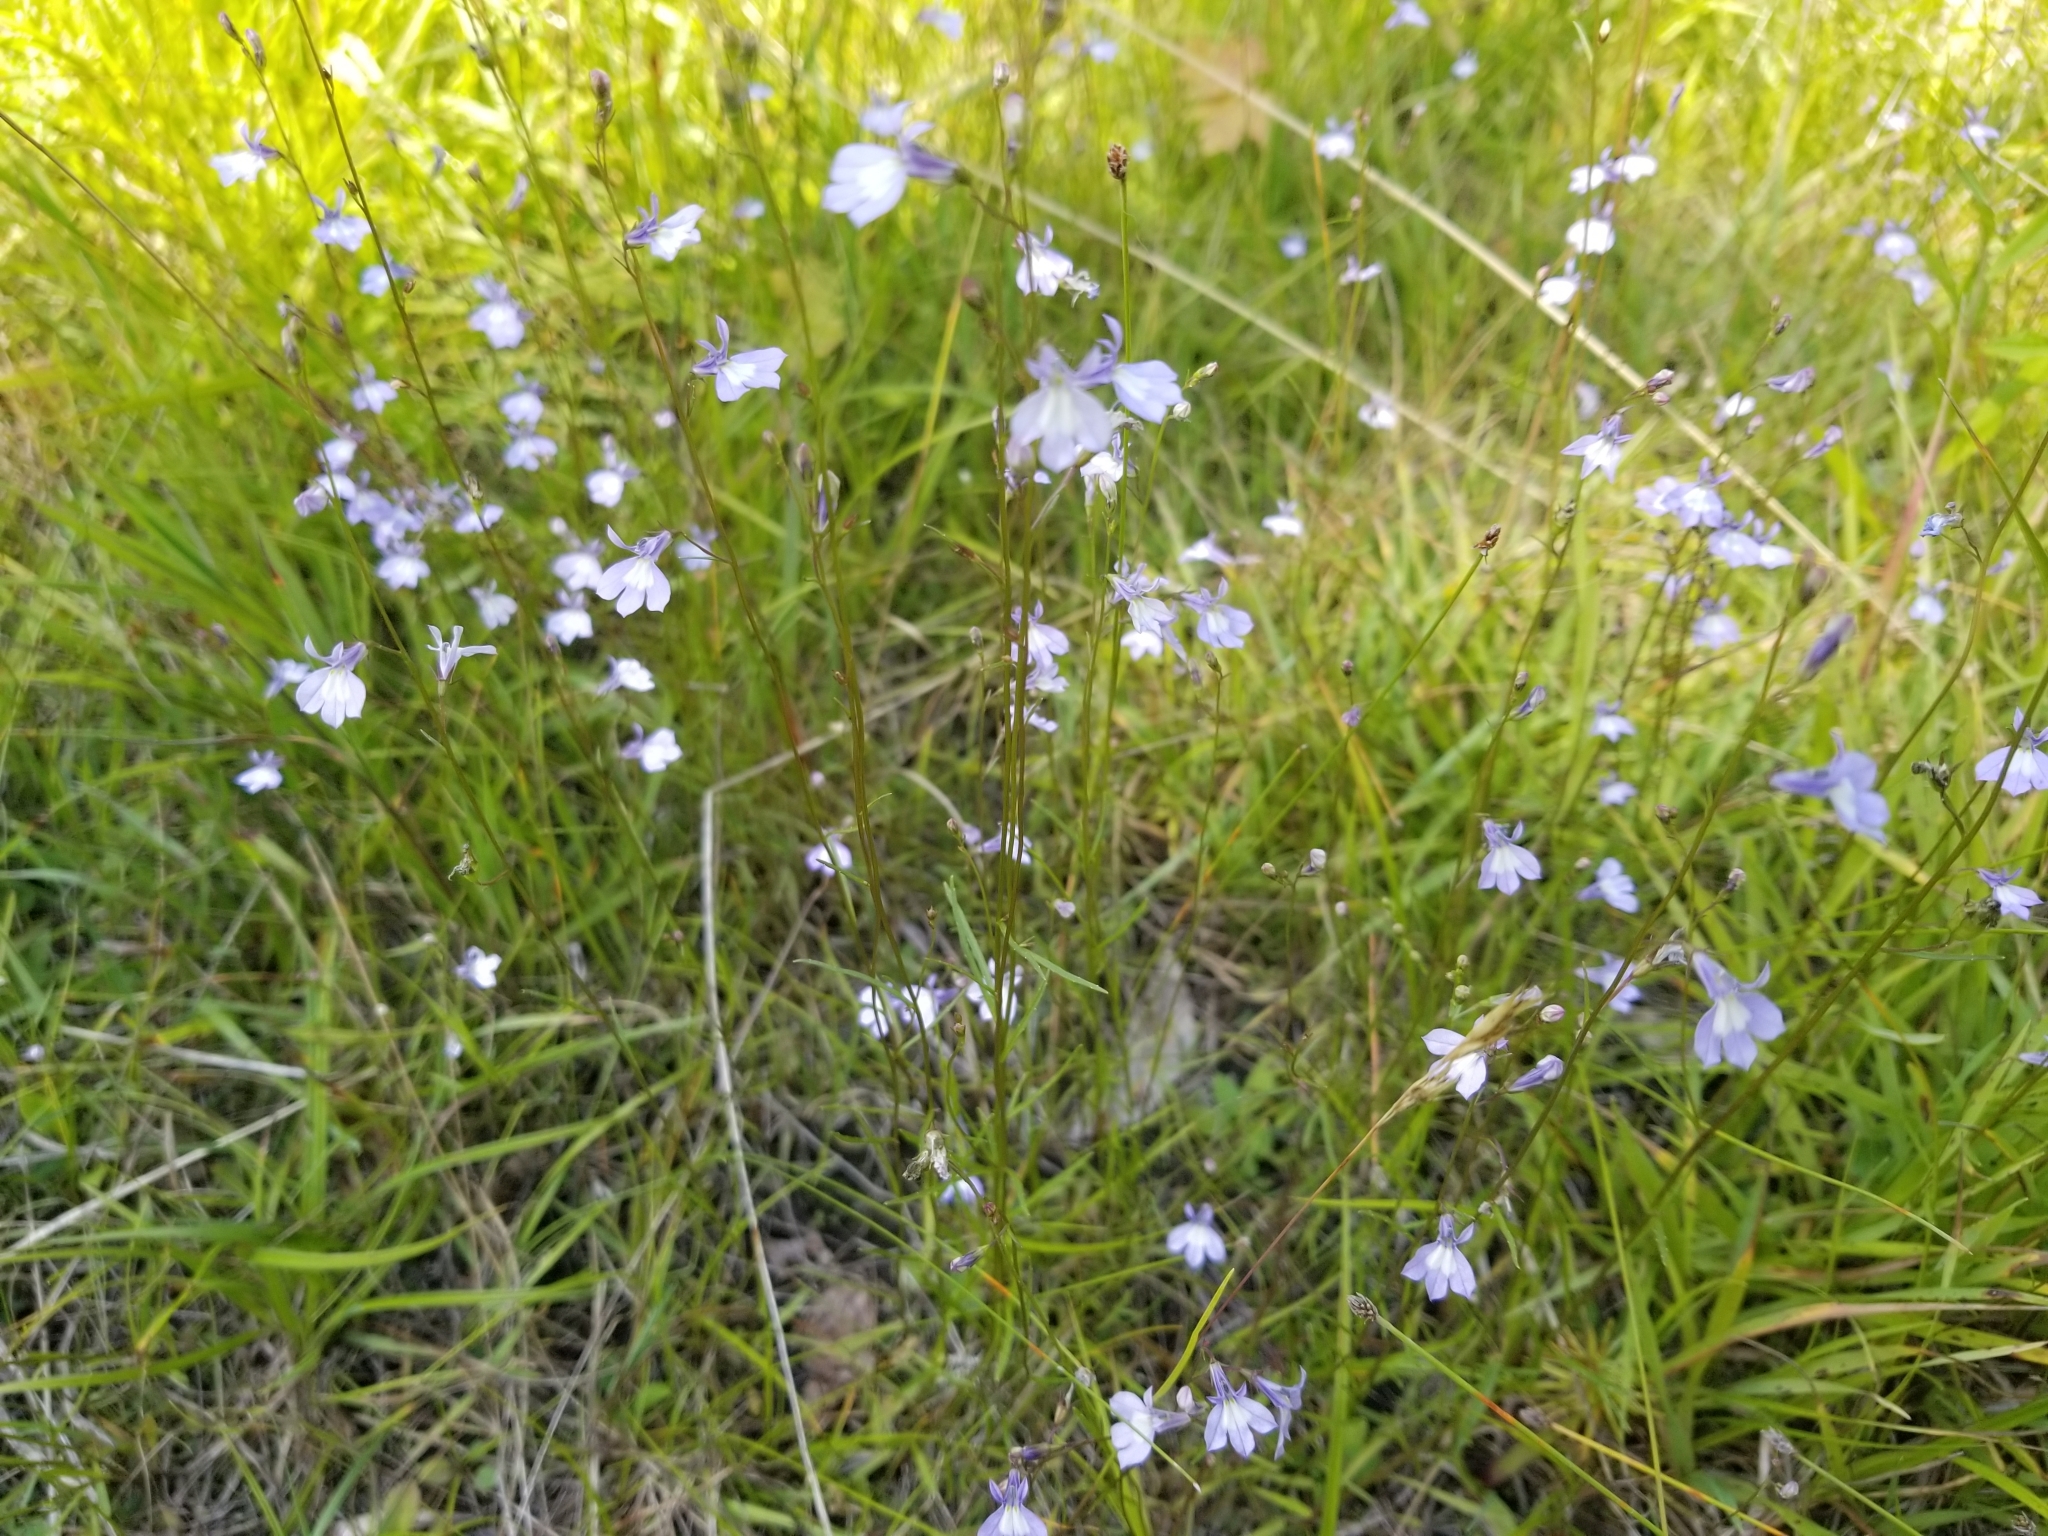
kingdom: Plantae
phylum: Tracheophyta
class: Magnoliopsida
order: Asterales
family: Campanulaceae
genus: Lobelia
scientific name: Lobelia kalmii
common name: Kalm's lobelia
